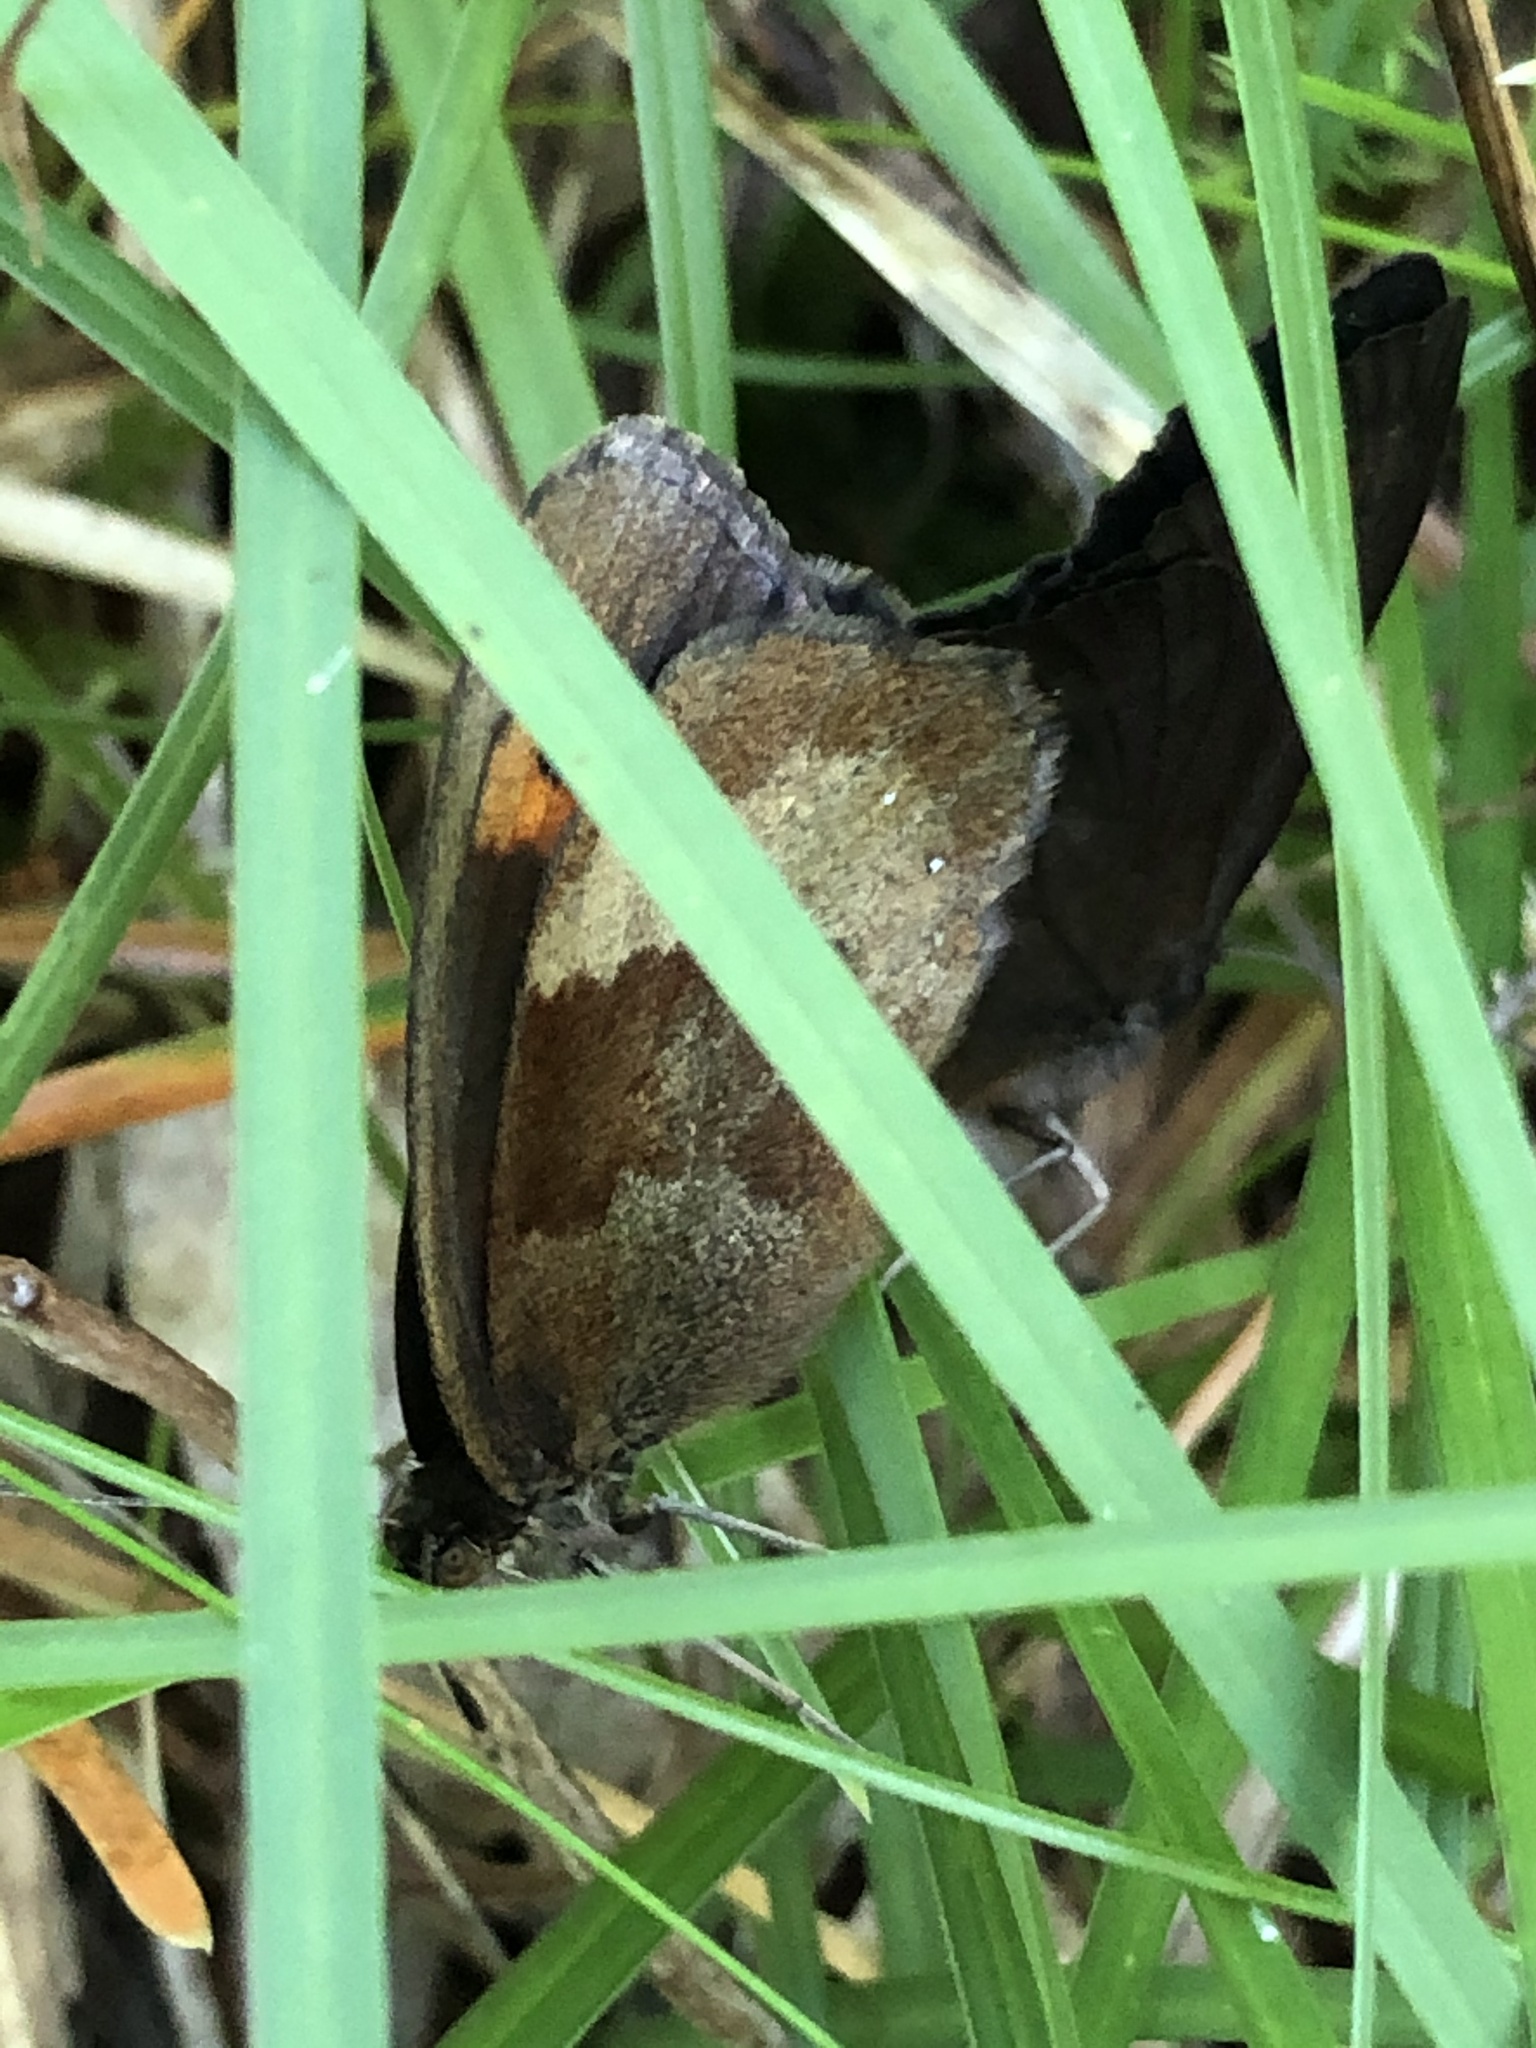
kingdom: Animalia
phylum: Arthropoda
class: Insecta
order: Lepidoptera
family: Nymphalidae
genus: Erebia
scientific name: Erebia aethiops
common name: Scotch argus
